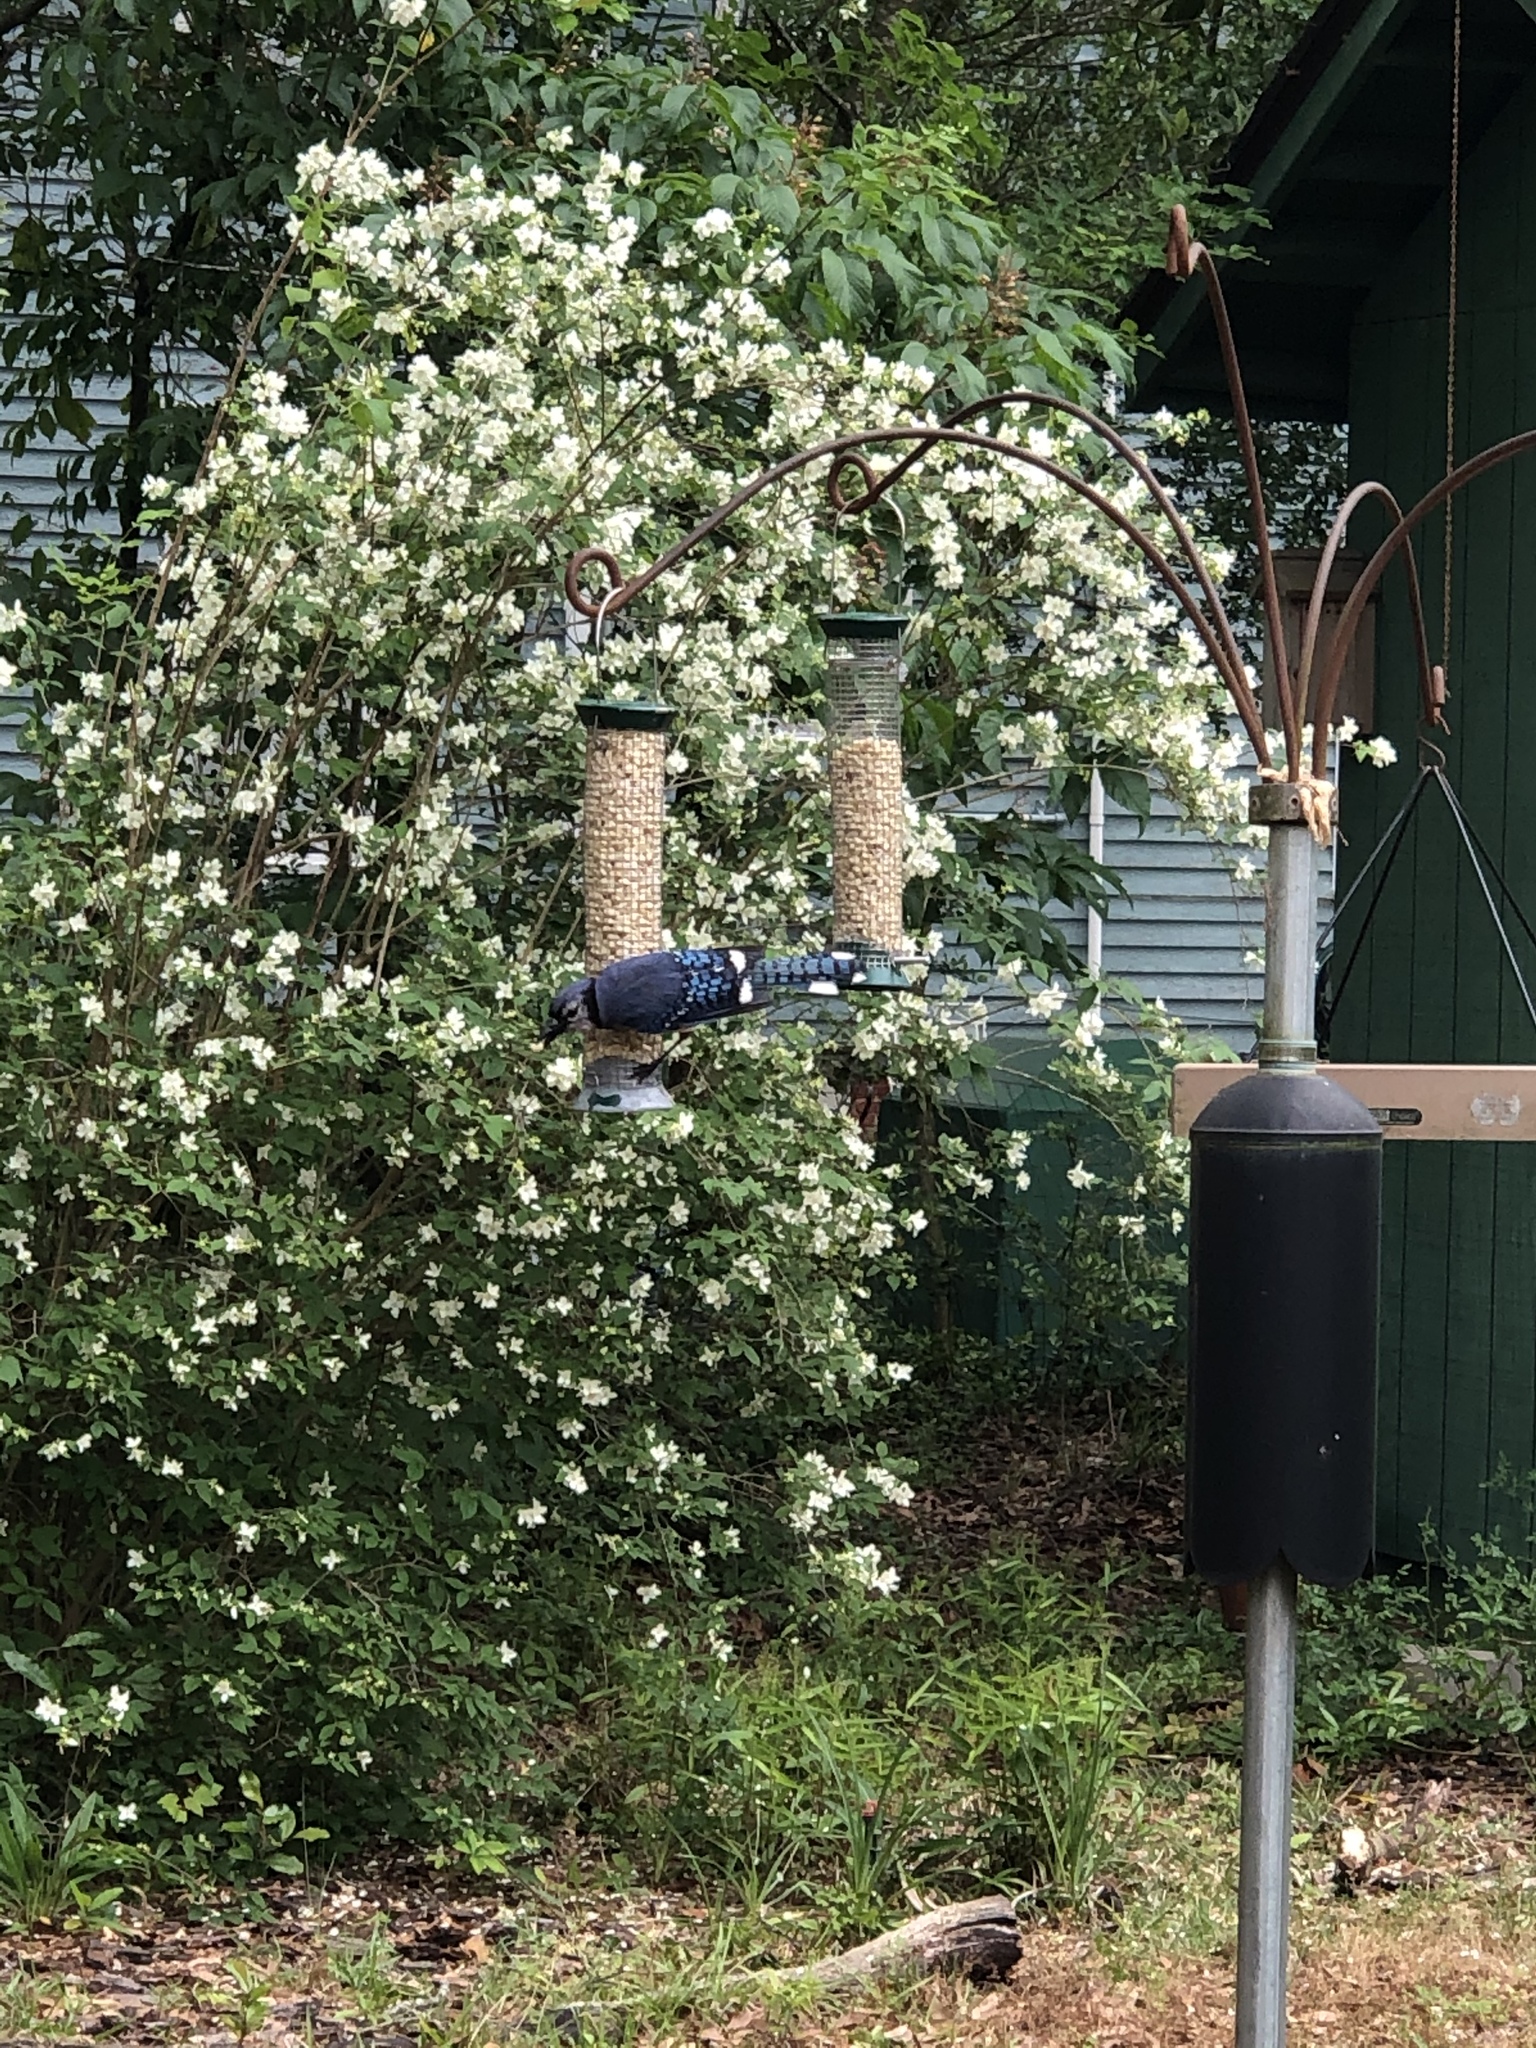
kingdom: Animalia
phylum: Chordata
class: Aves
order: Passeriformes
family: Corvidae
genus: Cyanocitta
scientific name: Cyanocitta cristata
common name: Blue jay
